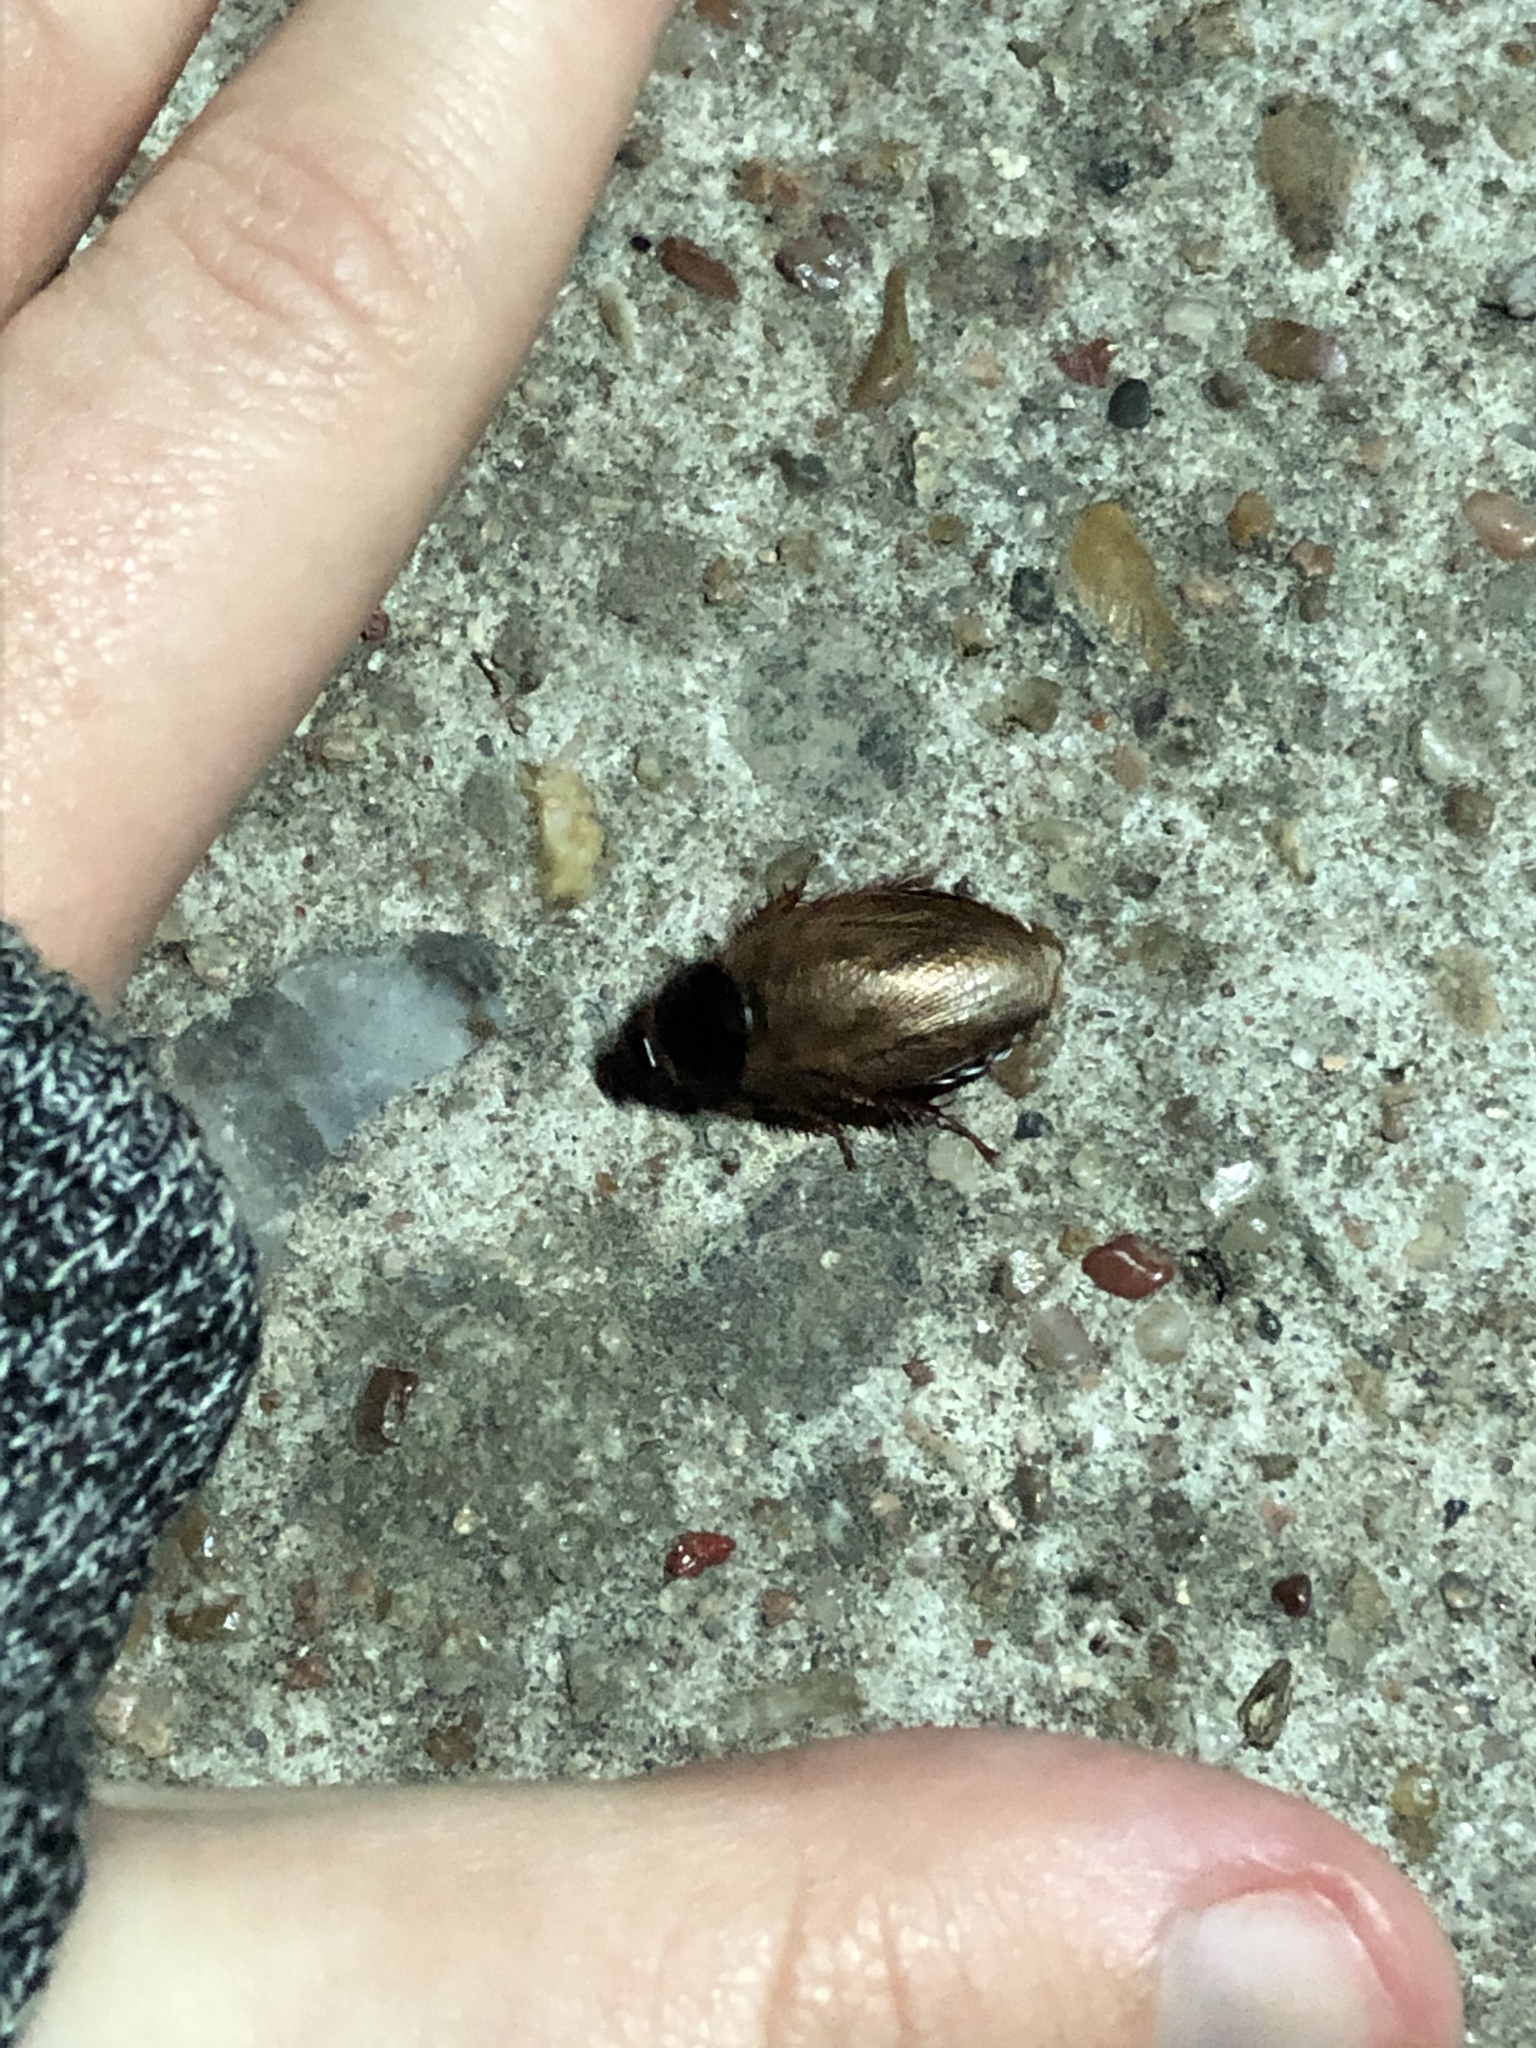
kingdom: Animalia
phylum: Arthropoda
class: Insecta
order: Blattodea
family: Blaberidae
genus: Pycnoscelus
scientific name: Pycnoscelus surinamensis
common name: Surinam cockroach
